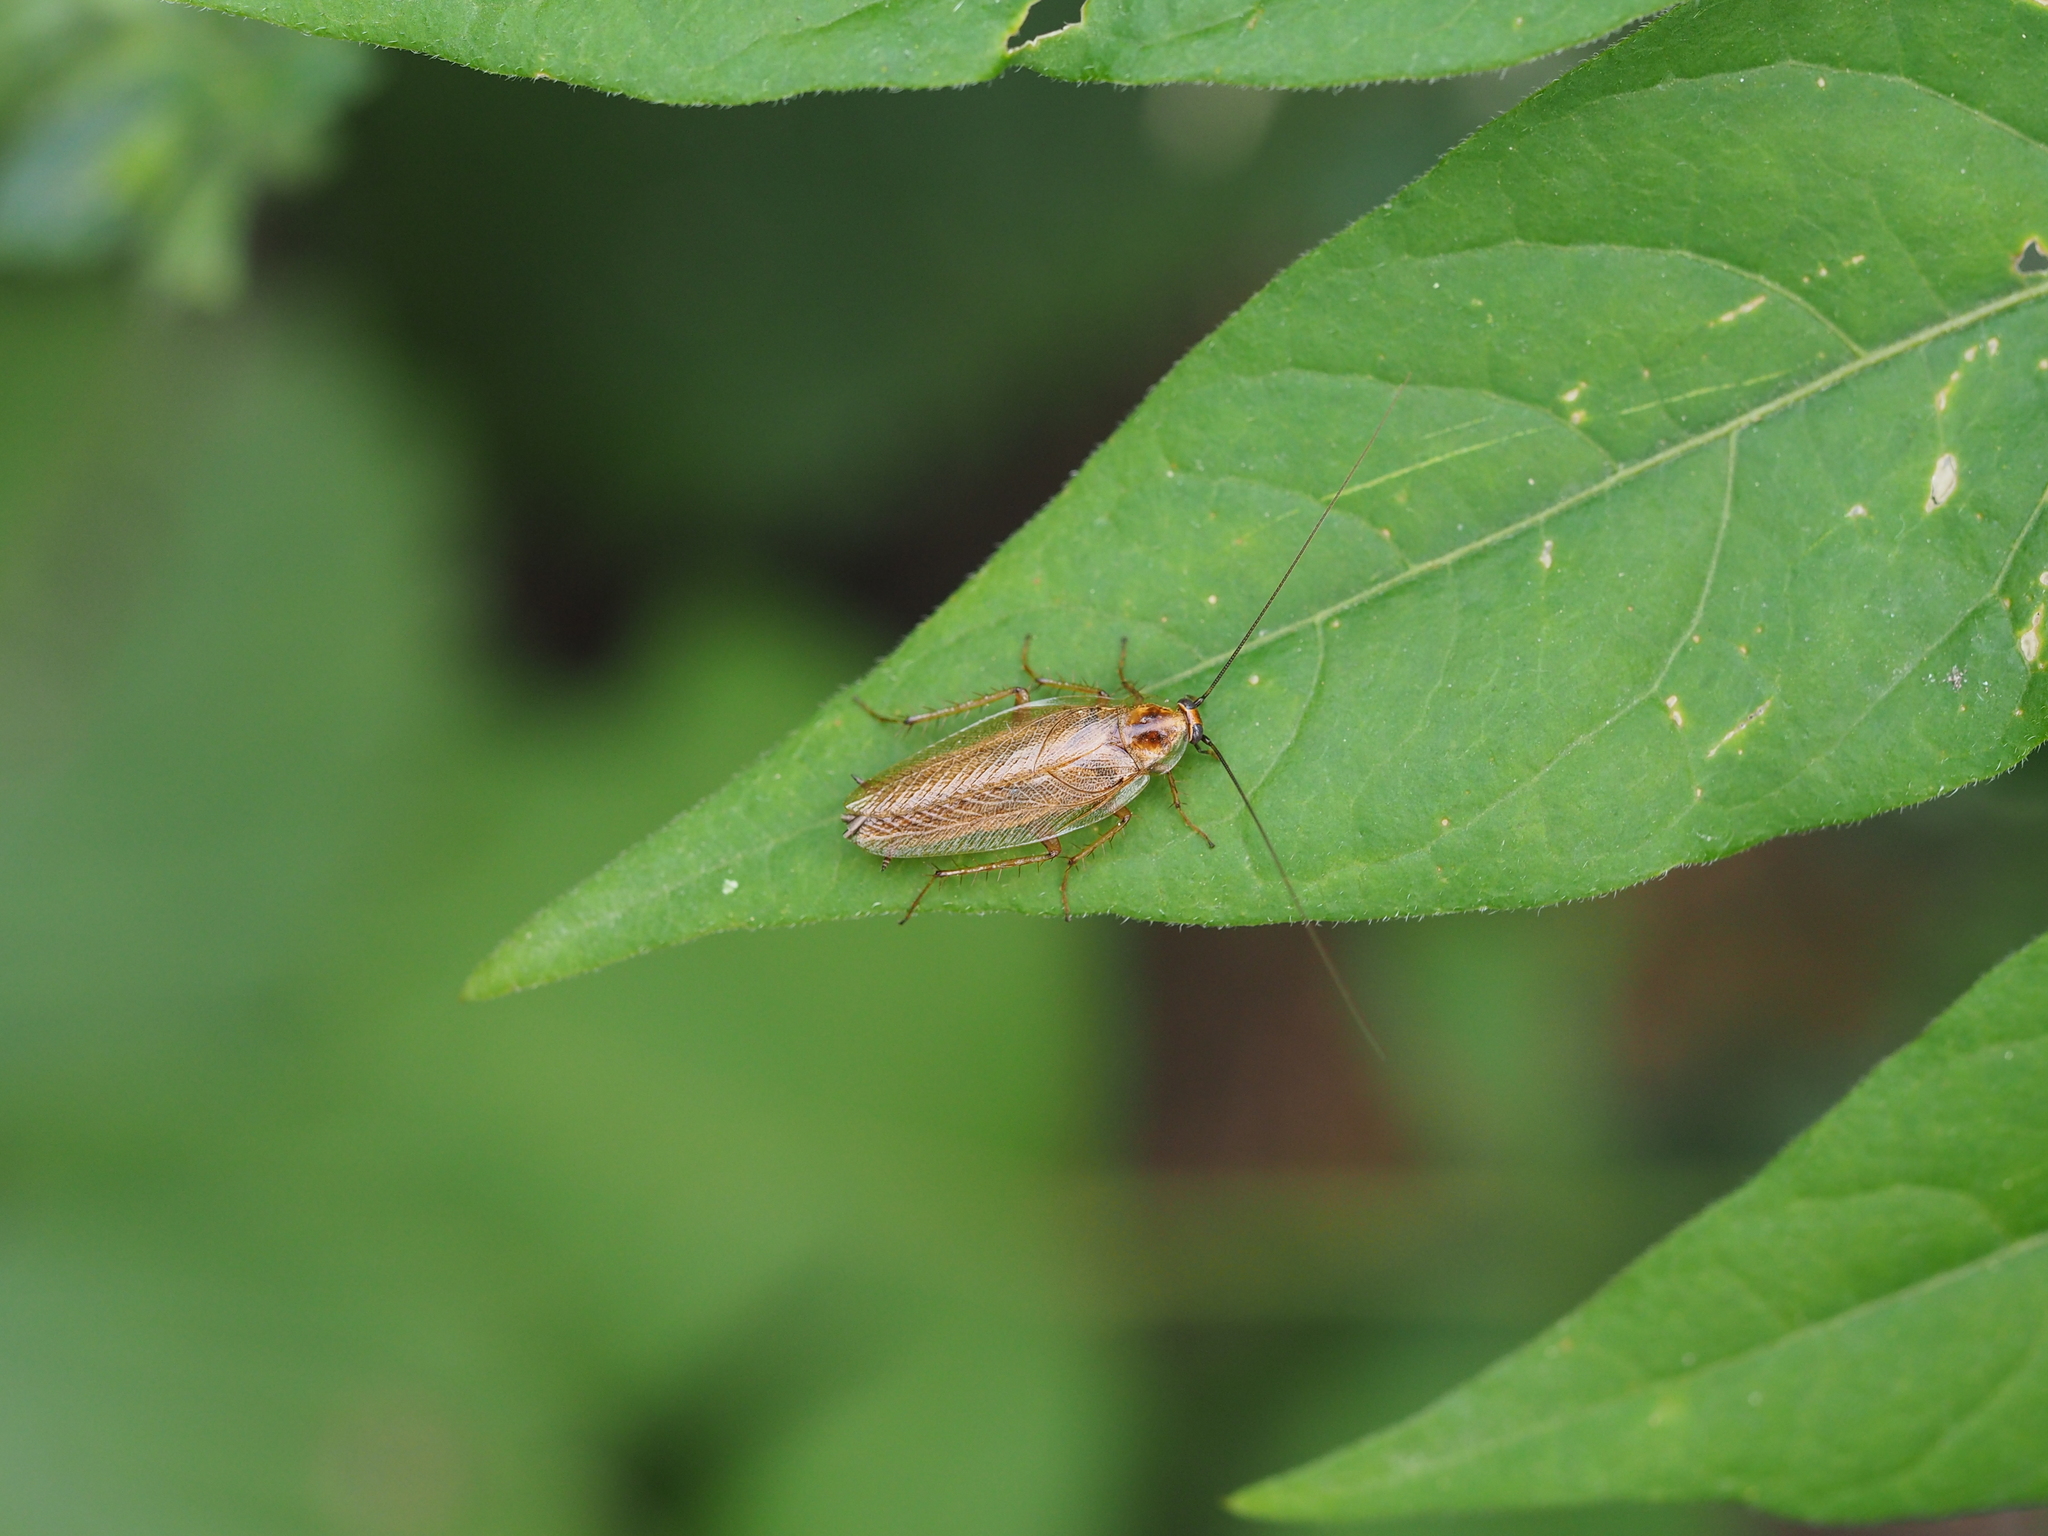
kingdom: Animalia
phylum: Arthropoda
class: Insecta
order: Blattodea
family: Ectobiidae
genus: Ectobius
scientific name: Ectobius vittiventris
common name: Garden cockroach
